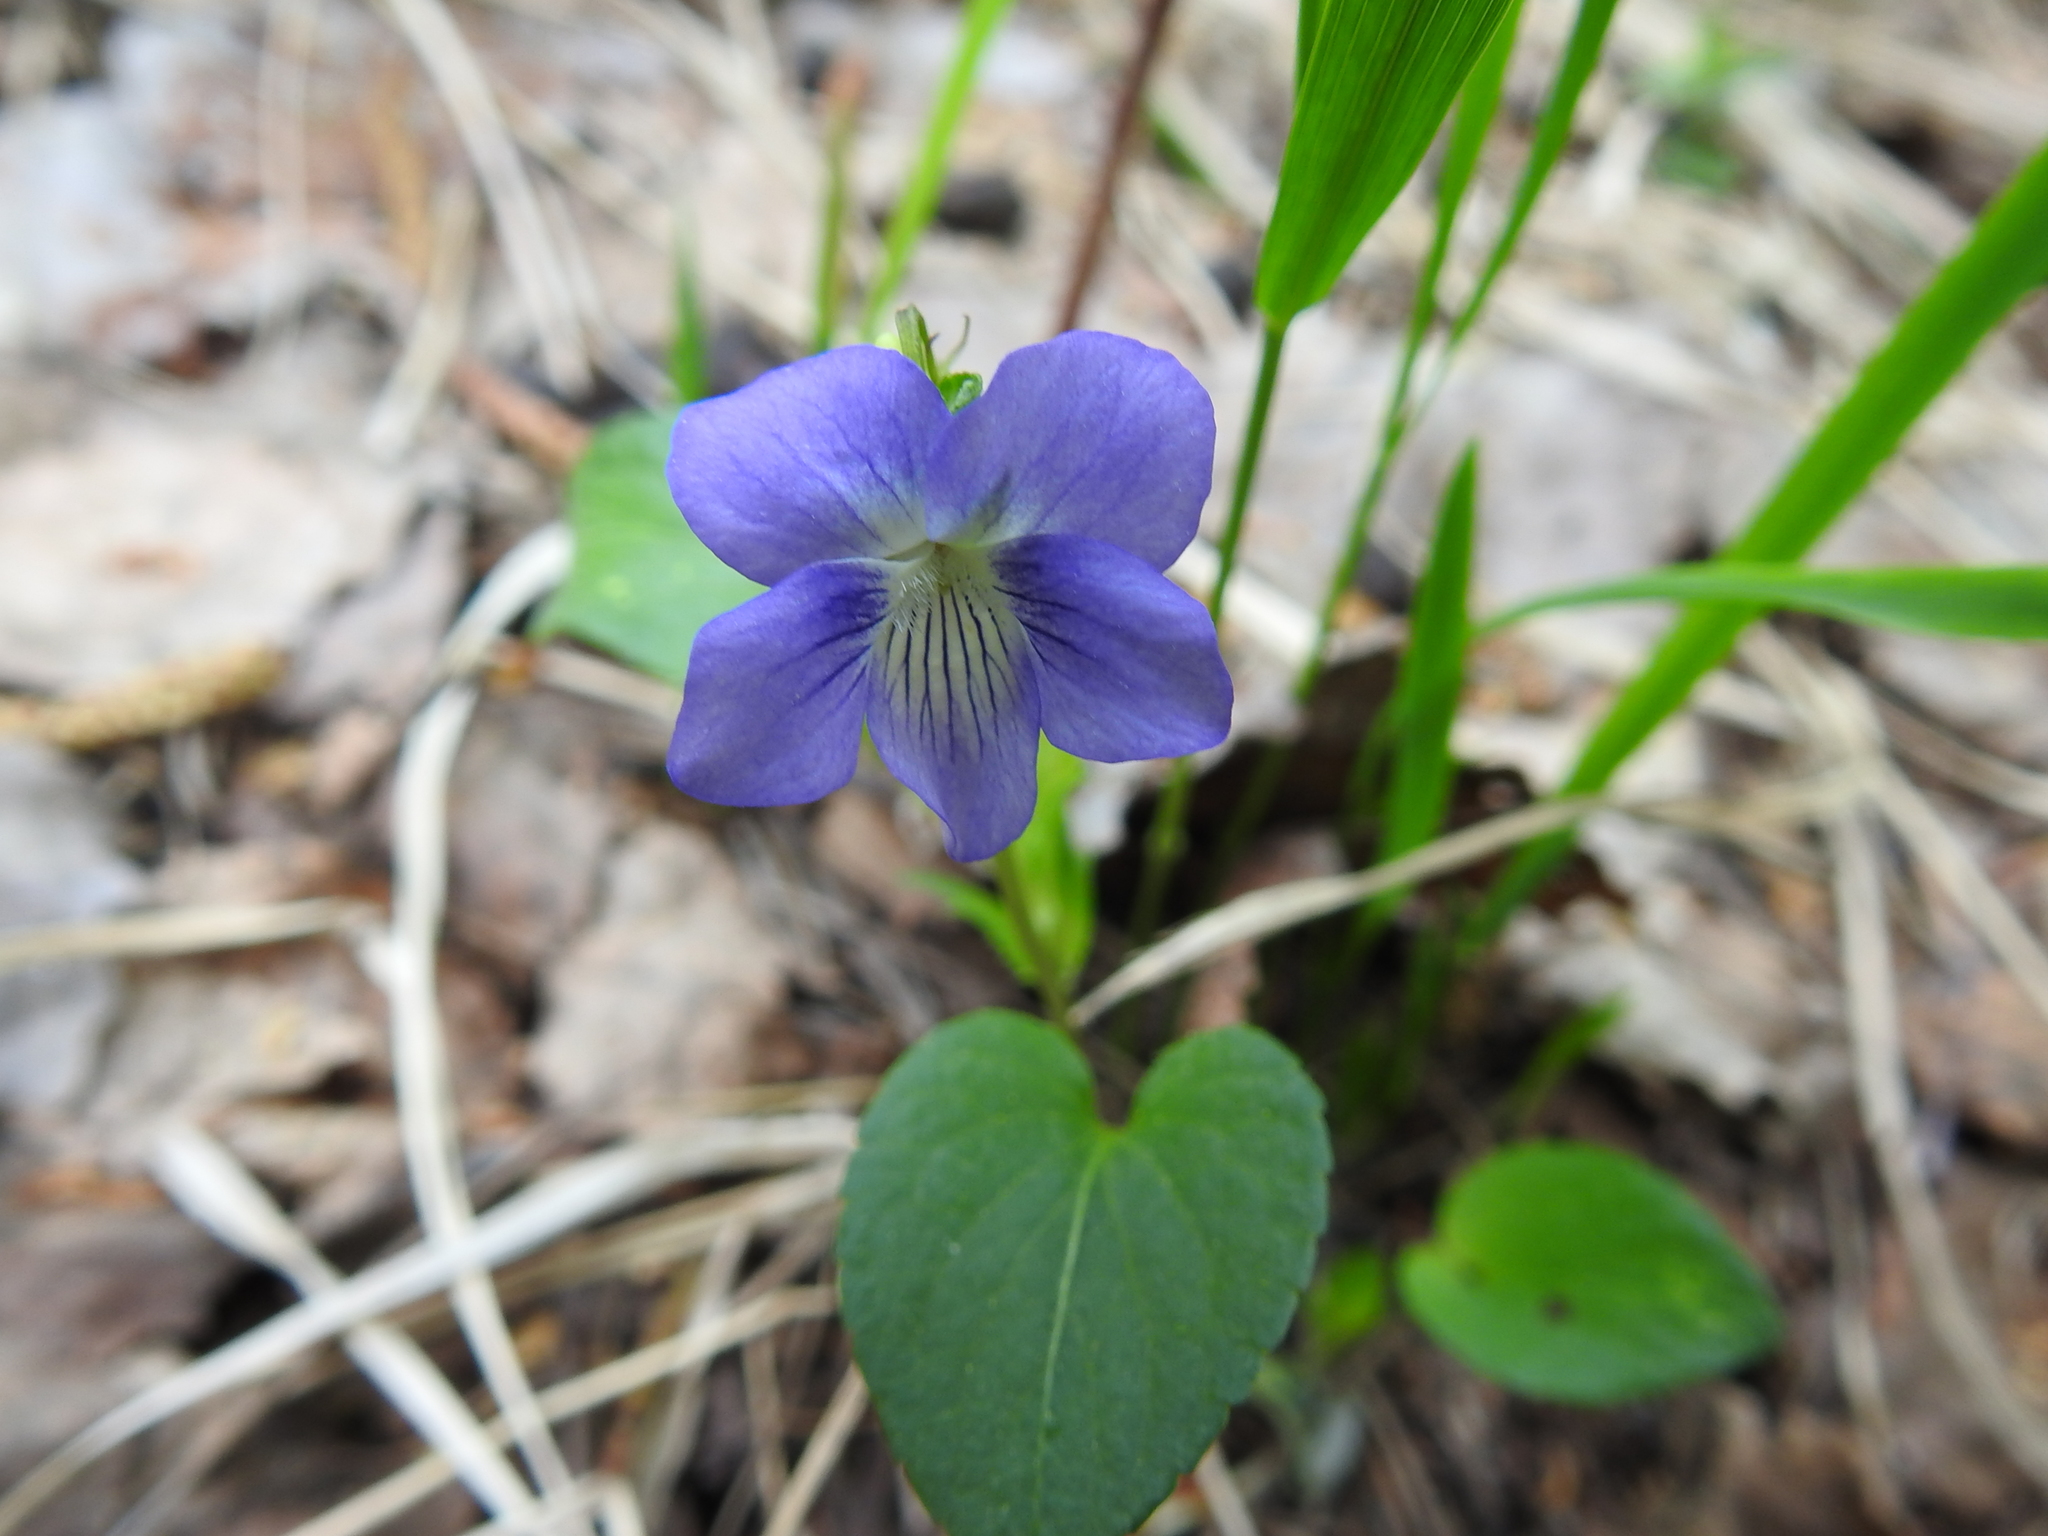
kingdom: Plantae
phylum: Tracheophyta
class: Magnoliopsida
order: Malpighiales
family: Violaceae
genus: Viola
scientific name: Viola canina
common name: Heath dog-violet
